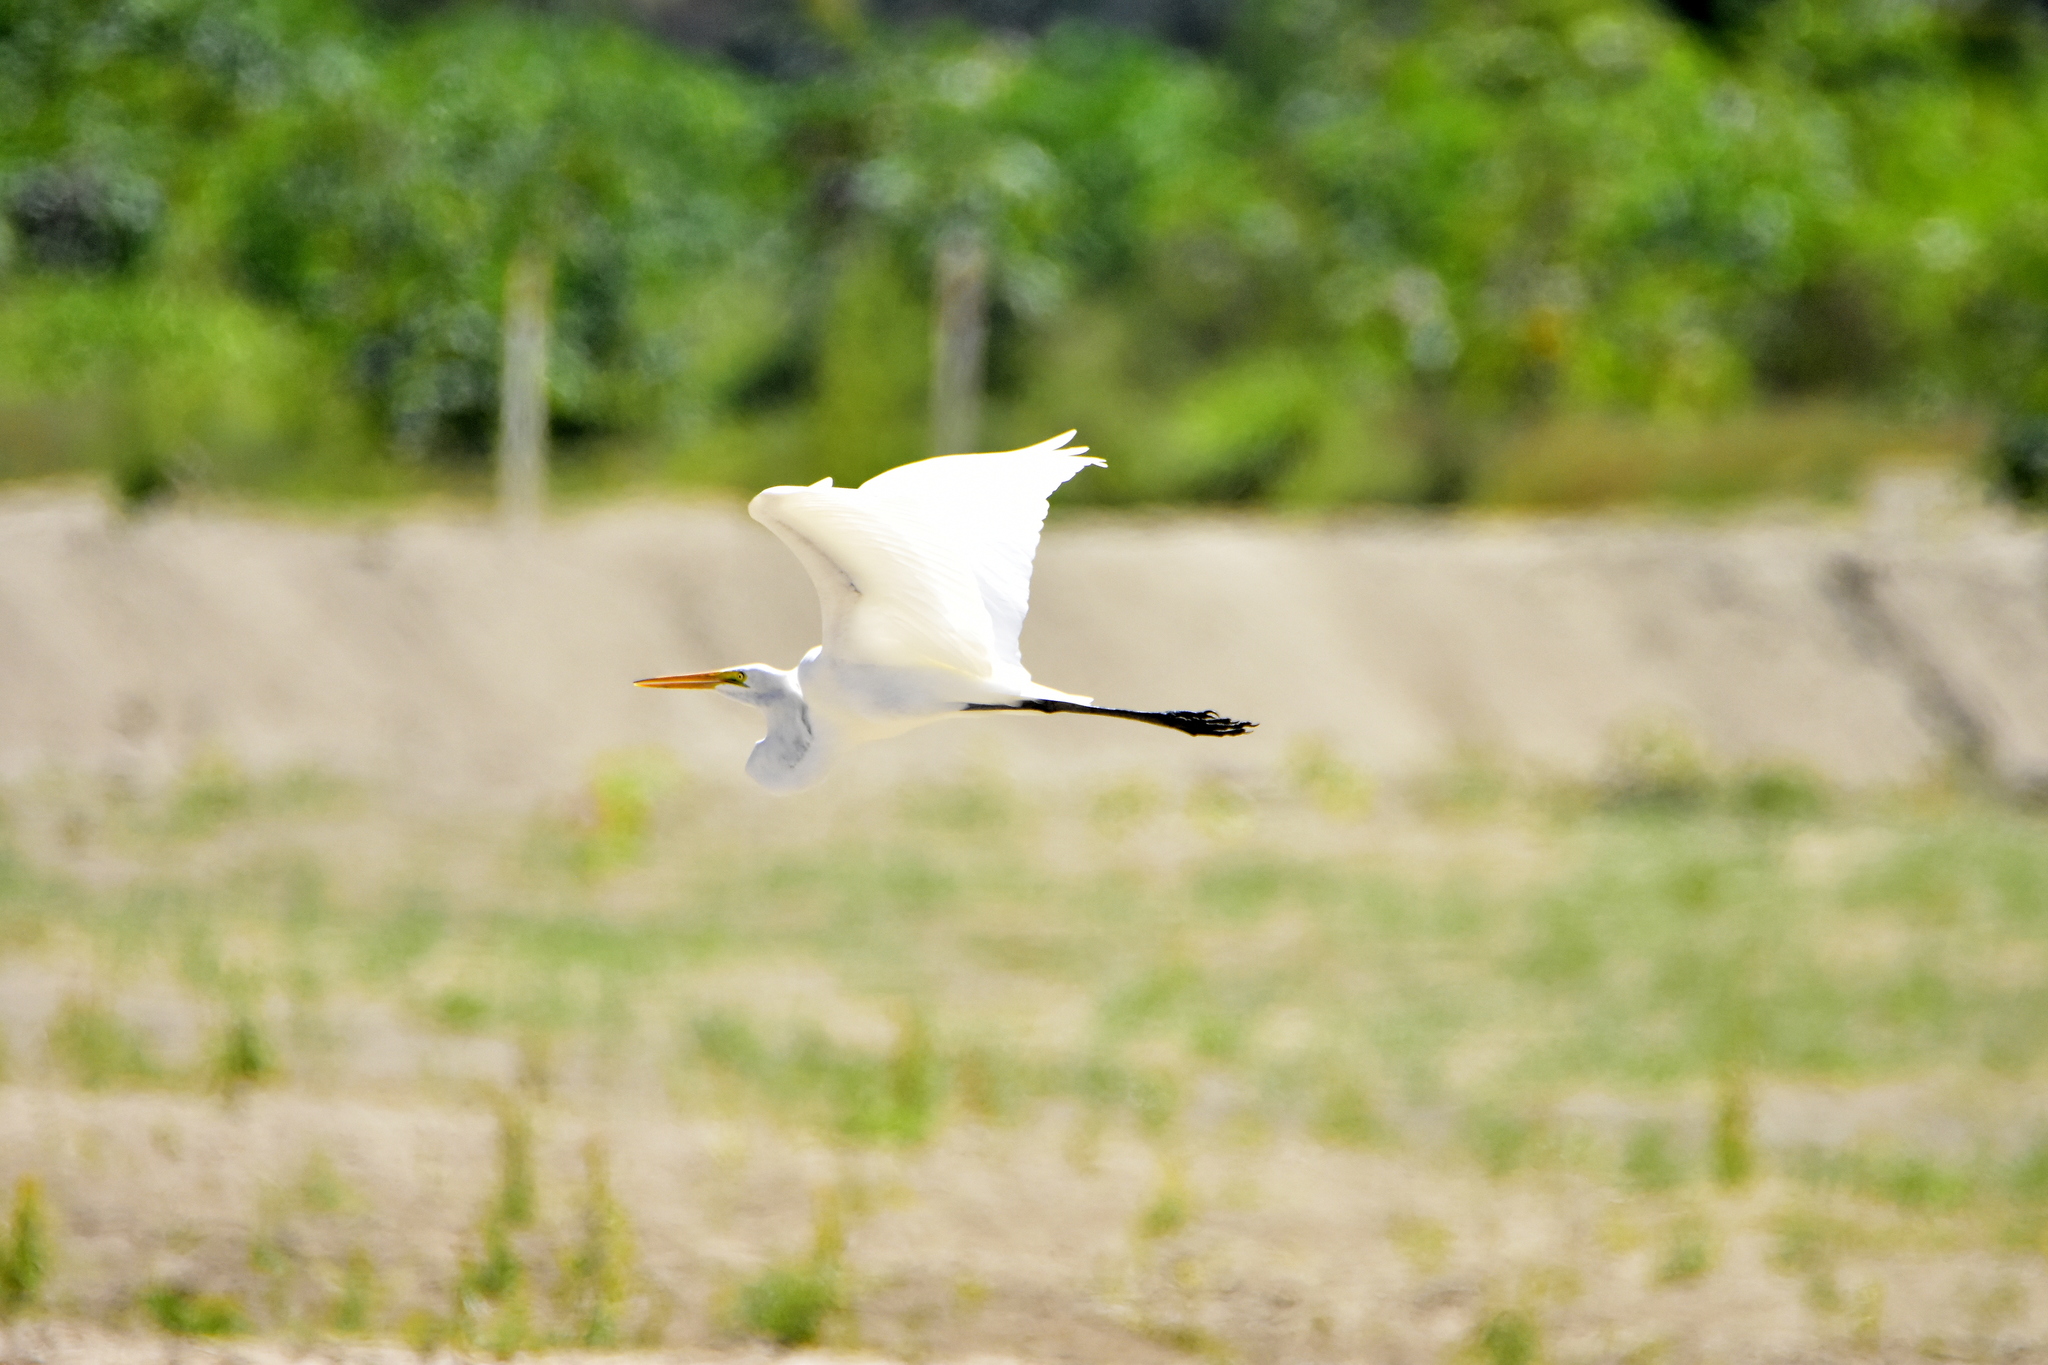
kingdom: Animalia
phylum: Chordata
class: Aves
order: Pelecaniformes
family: Ardeidae
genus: Ardea
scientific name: Ardea alba
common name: Great egret
